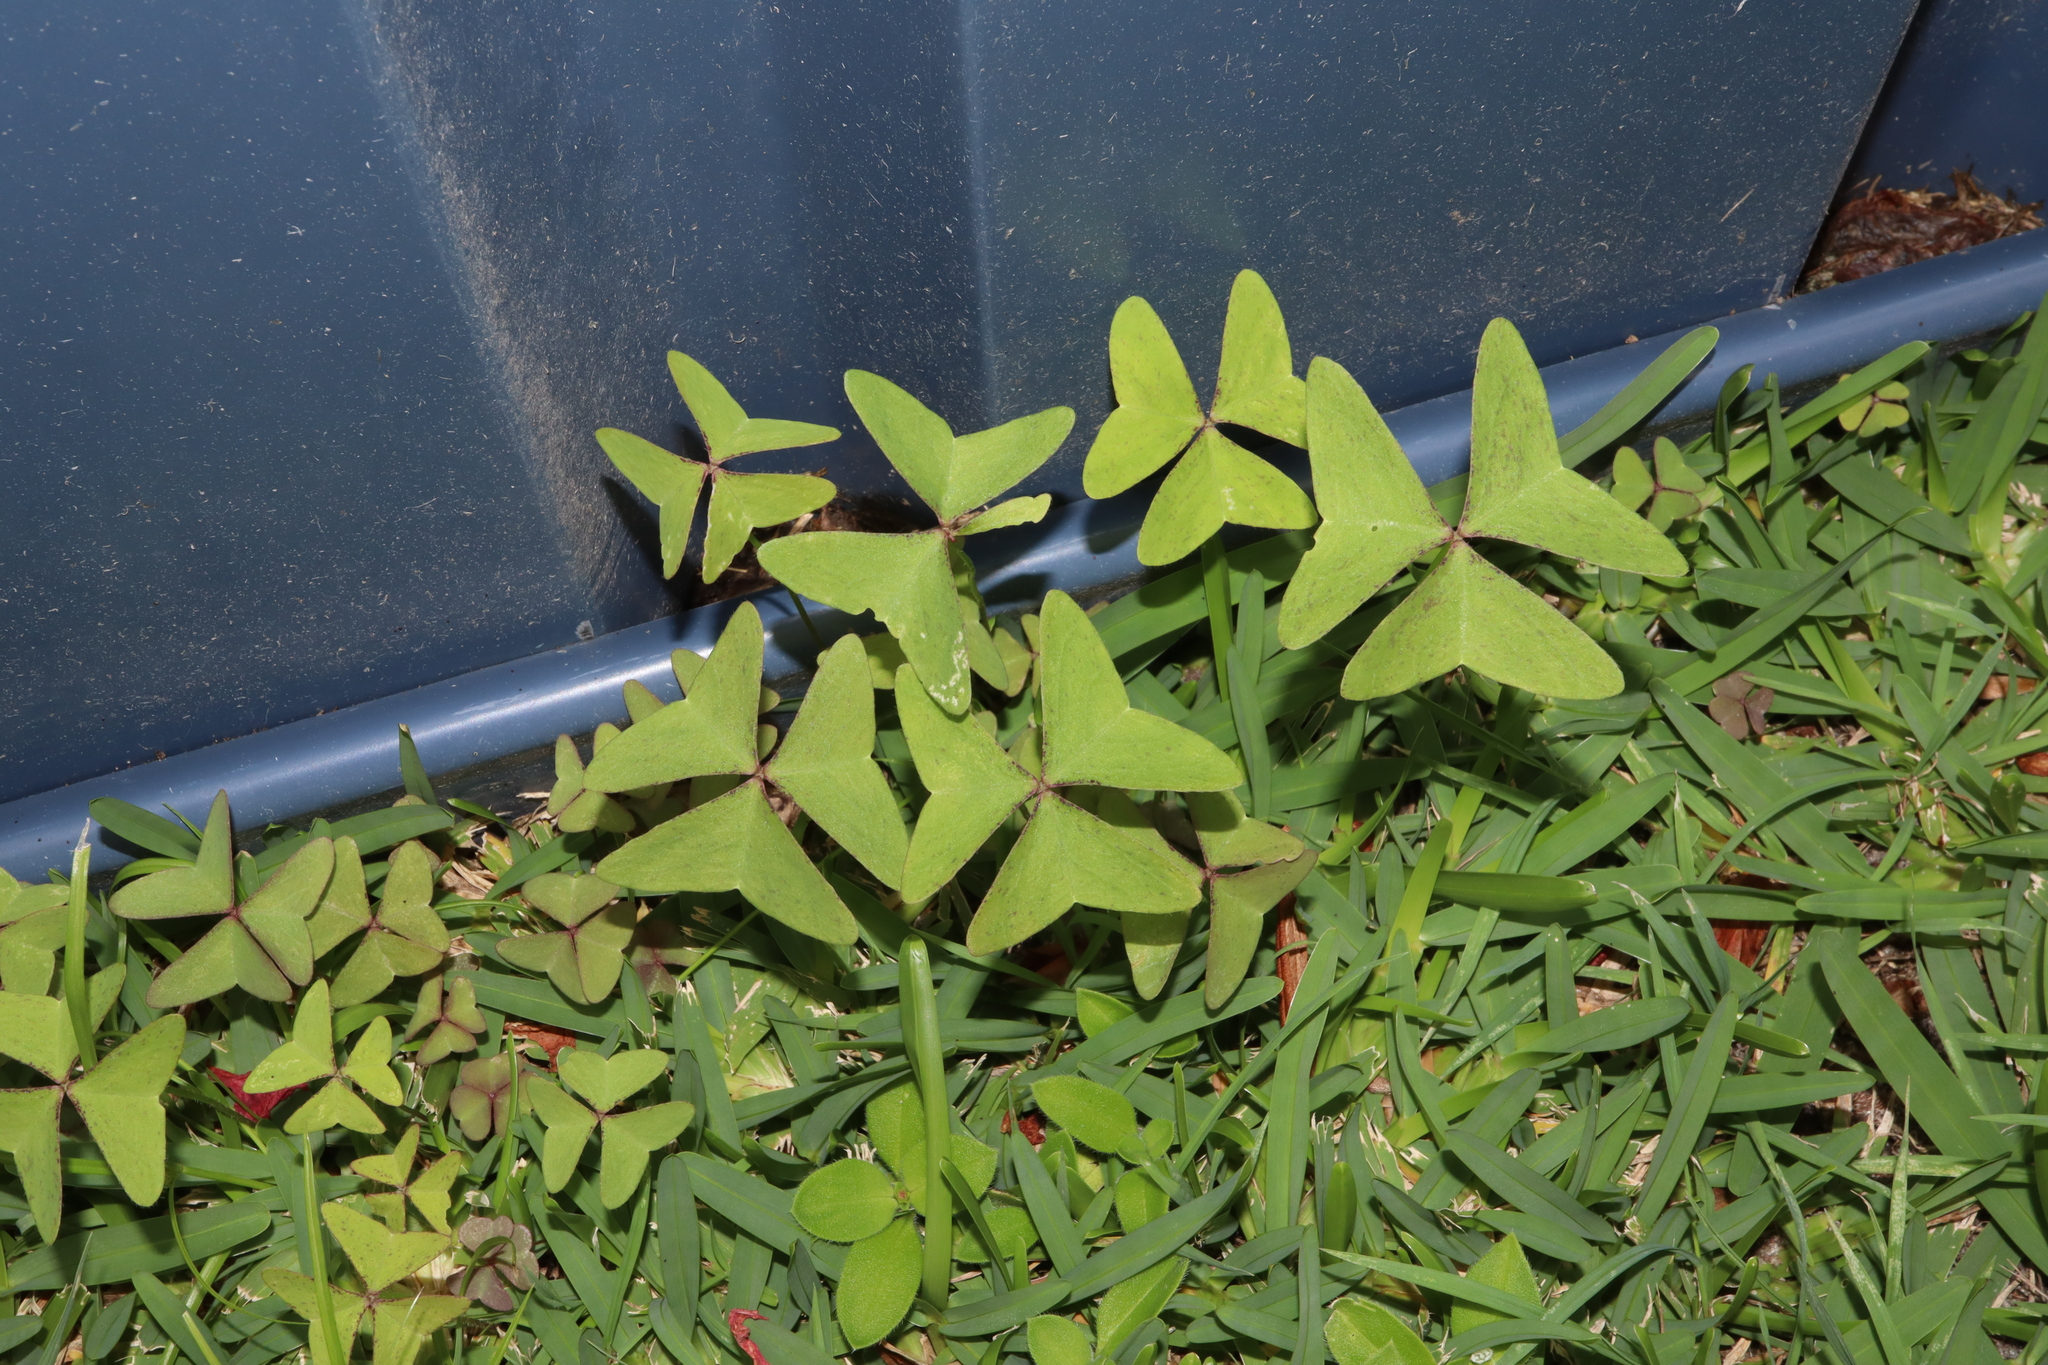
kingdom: Plantae
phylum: Tracheophyta
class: Magnoliopsida
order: Oxalidales
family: Oxalidaceae
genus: Oxalis
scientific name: Oxalis latifolia
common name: Garden pink-sorrel
